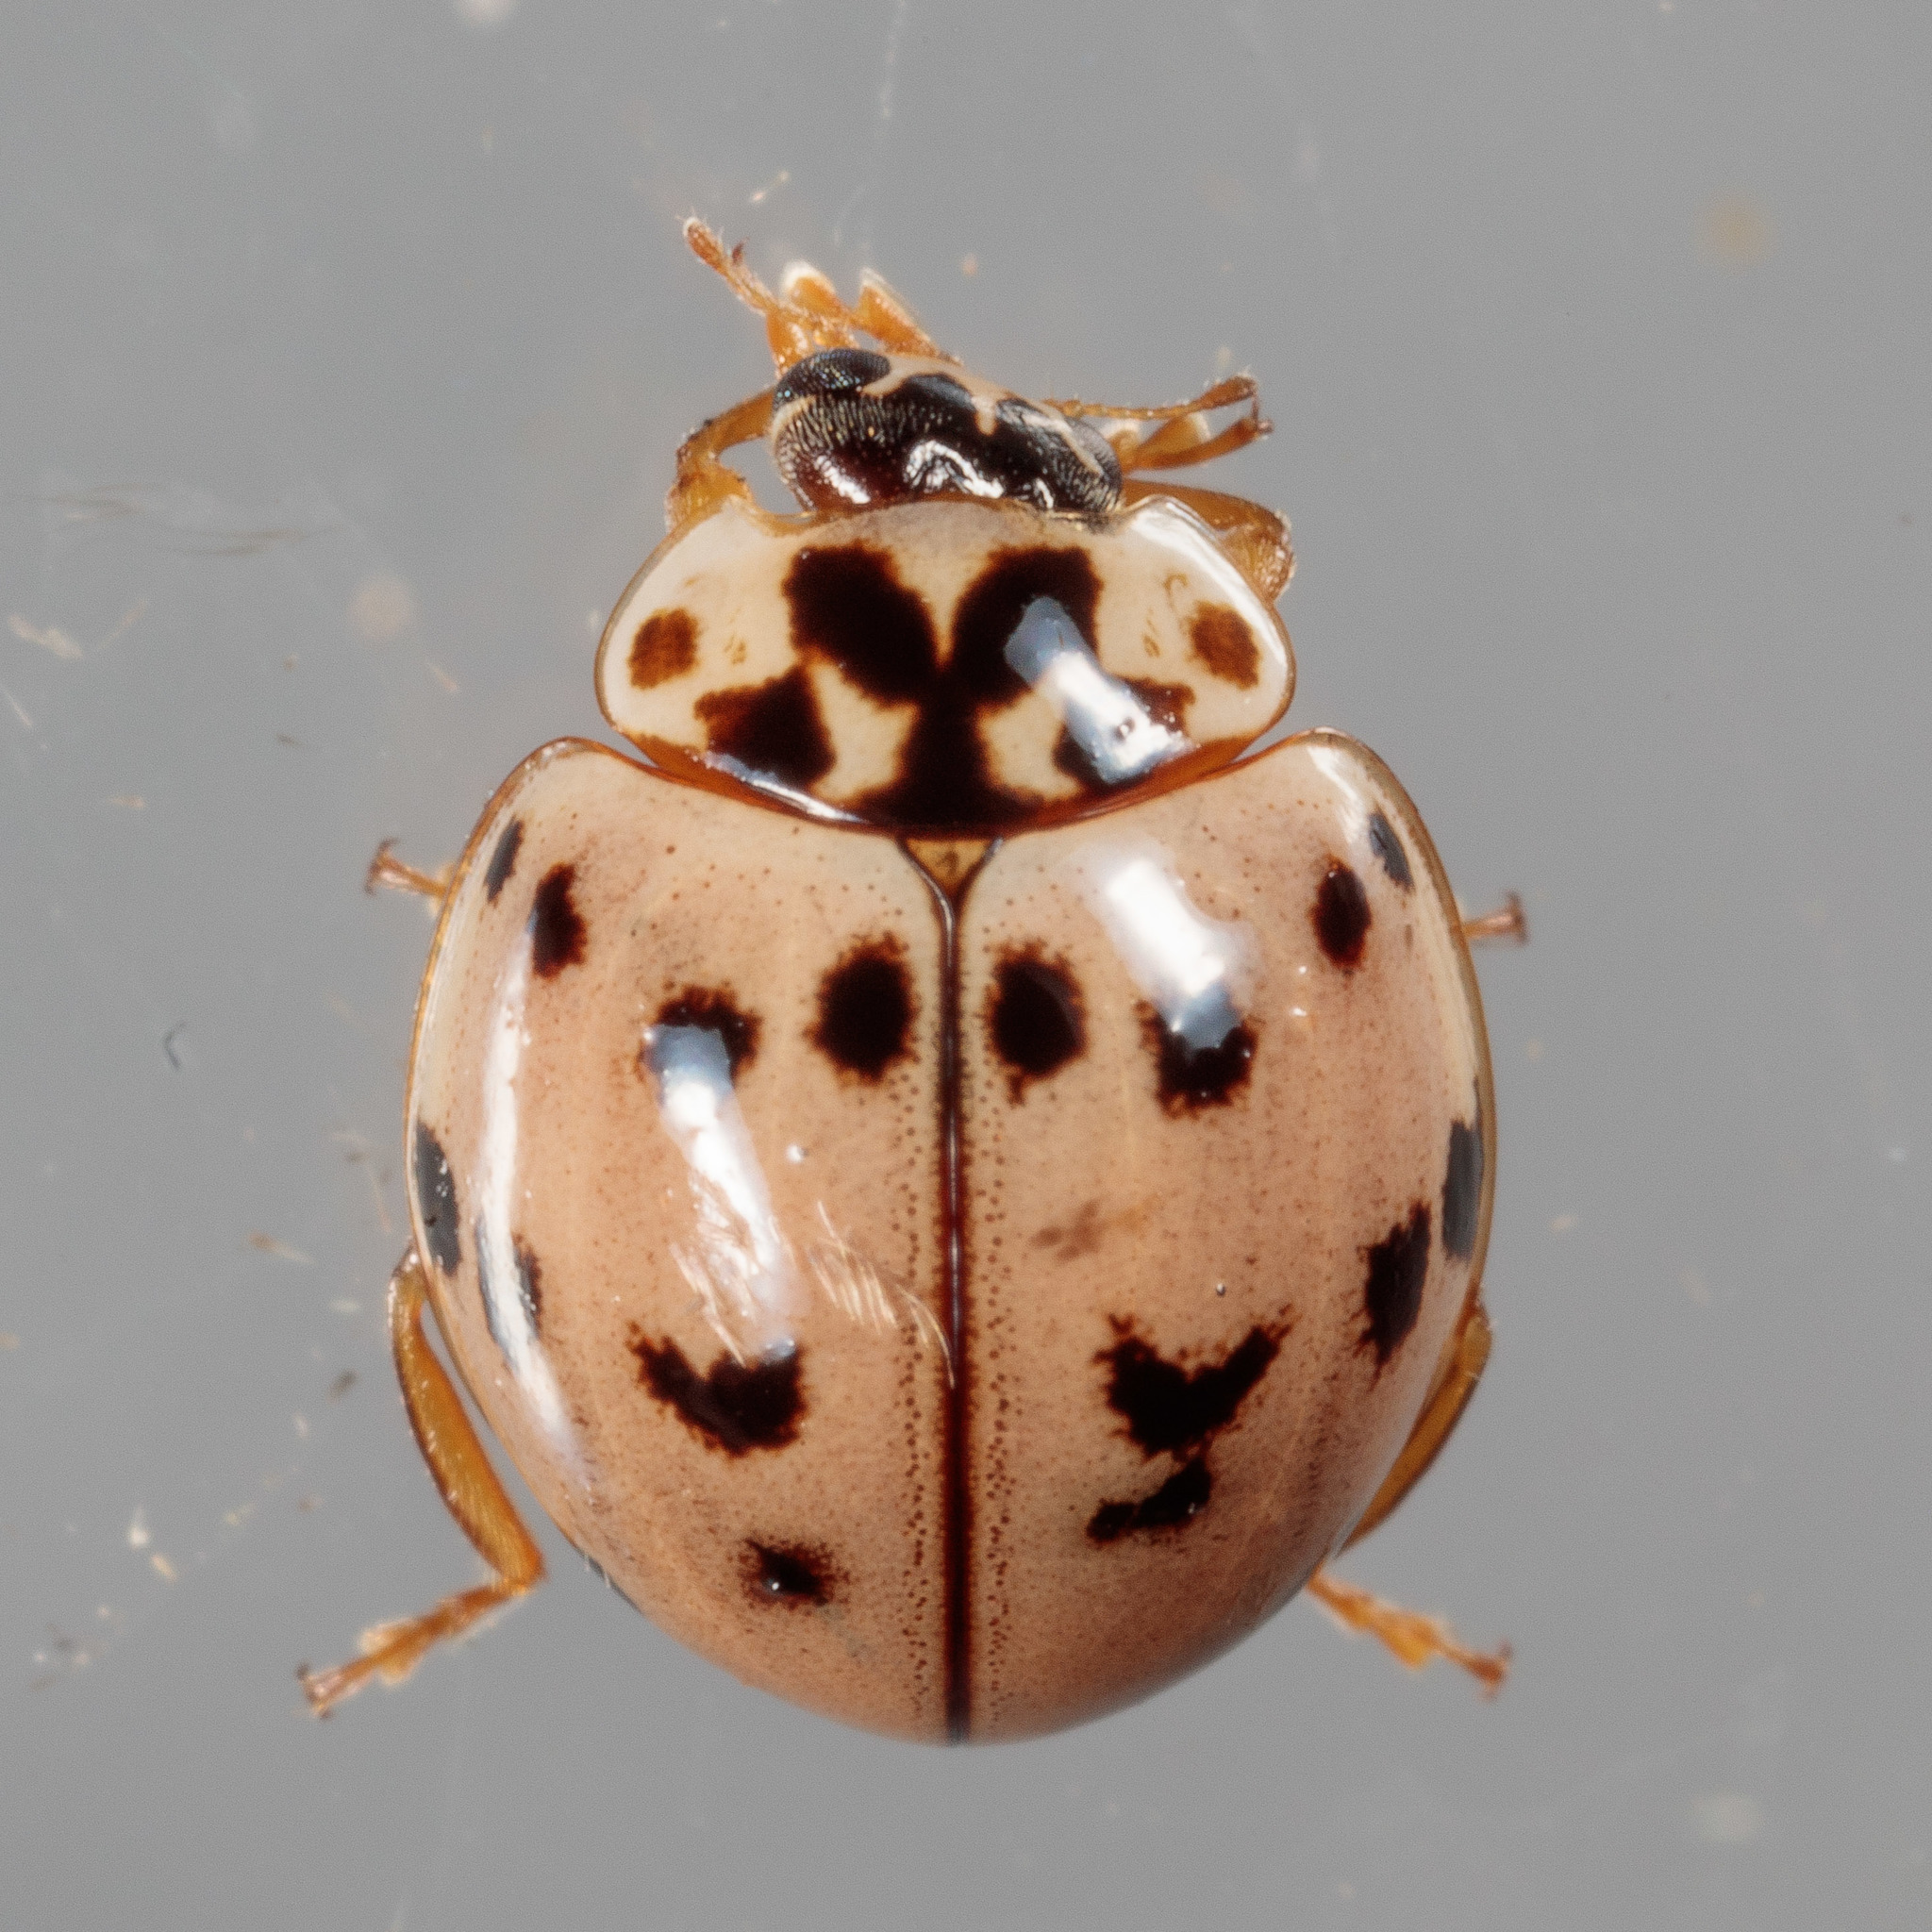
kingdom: Animalia
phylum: Arthropoda
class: Insecta
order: Coleoptera
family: Coccinellidae
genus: Olla
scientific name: Olla v-nigrum
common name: Ashy gray lady beetle
